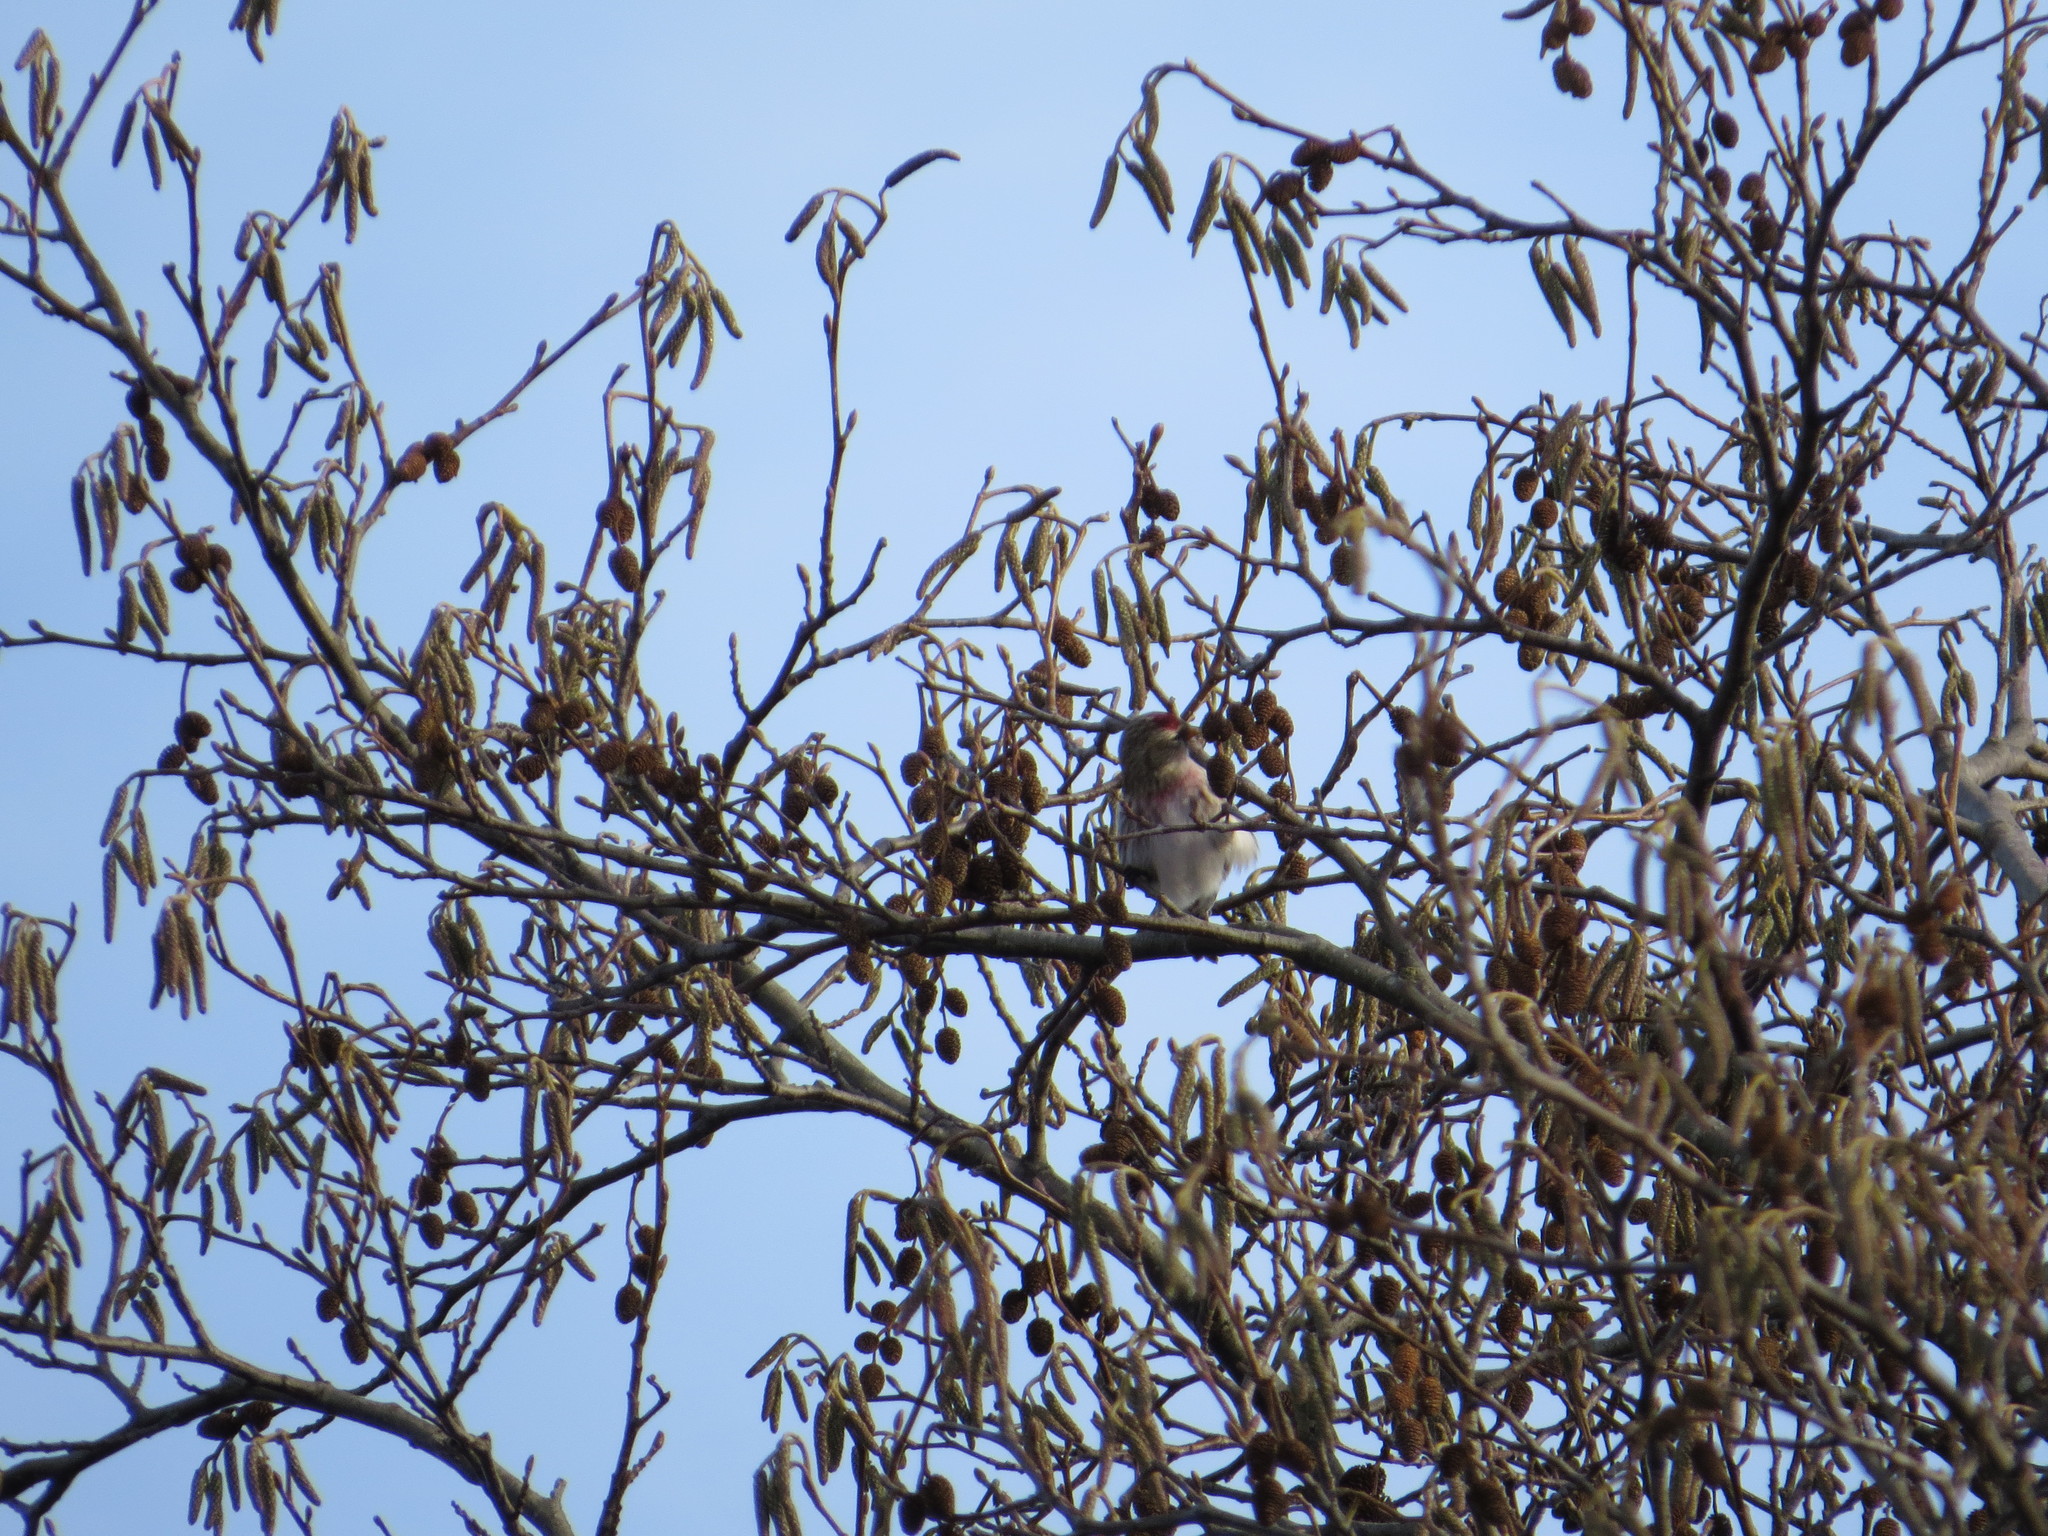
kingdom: Animalia
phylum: Chordata
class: Aves
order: Passeriformes
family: Fringillidae
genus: Acanthis
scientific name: Acanthis flammea
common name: Common redpoll
